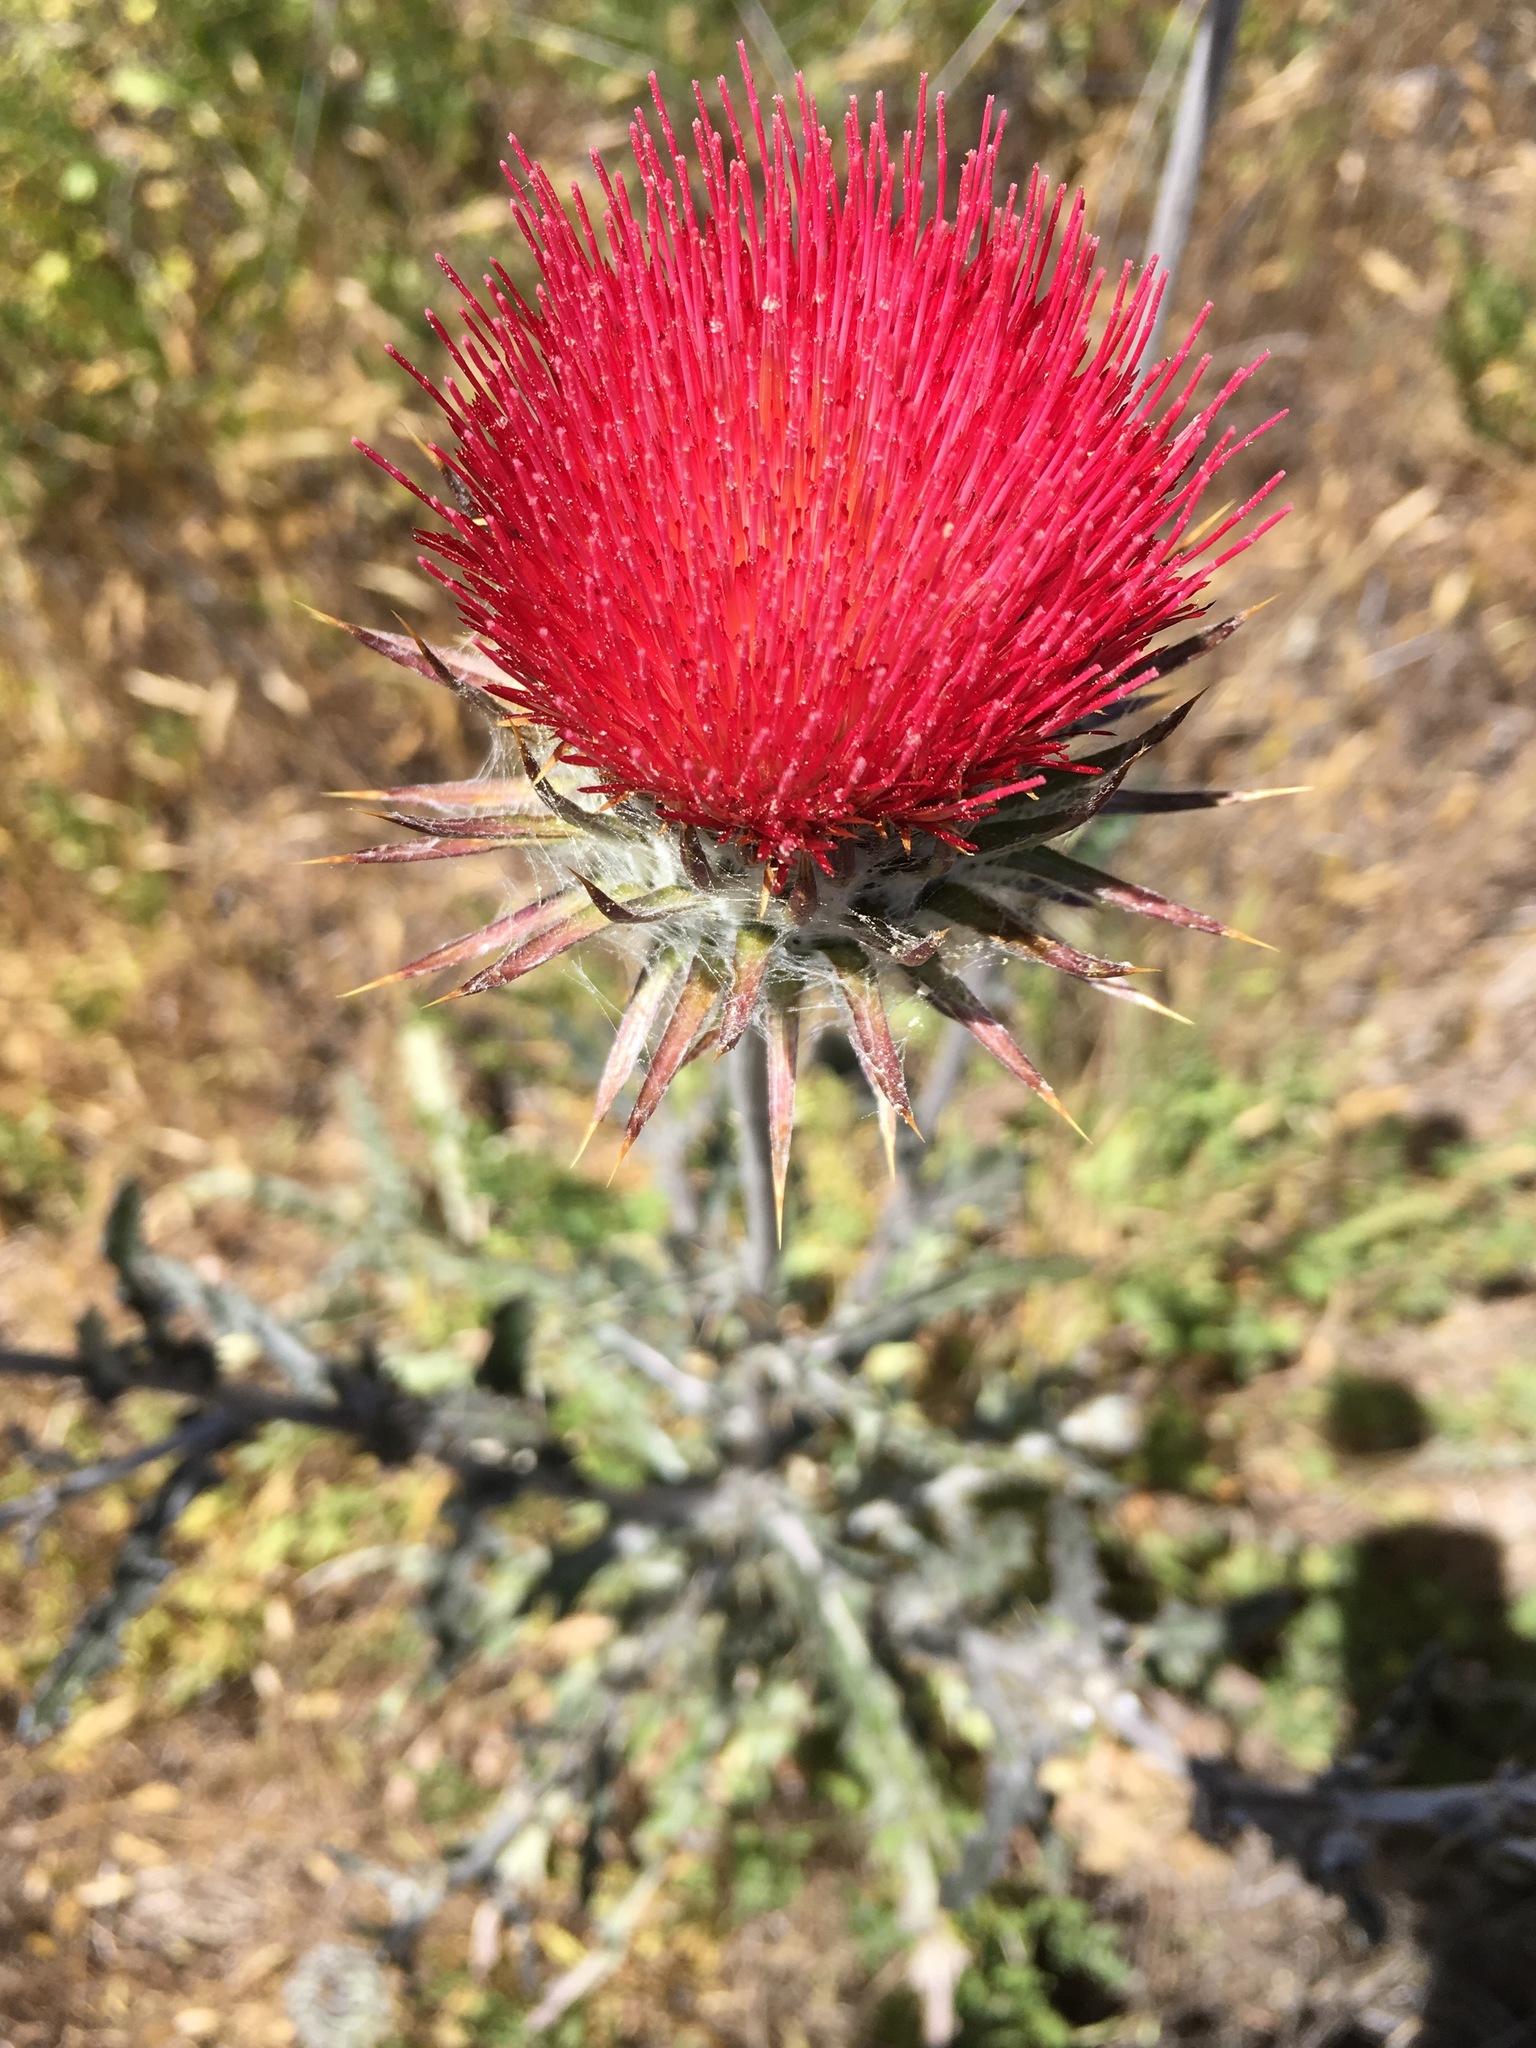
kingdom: Plantae
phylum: Tracheophyta
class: Magnoliopsida
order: Asterales
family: Asteraceae
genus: Cirsium
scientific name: Cirsium occidentale
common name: Western thistle
